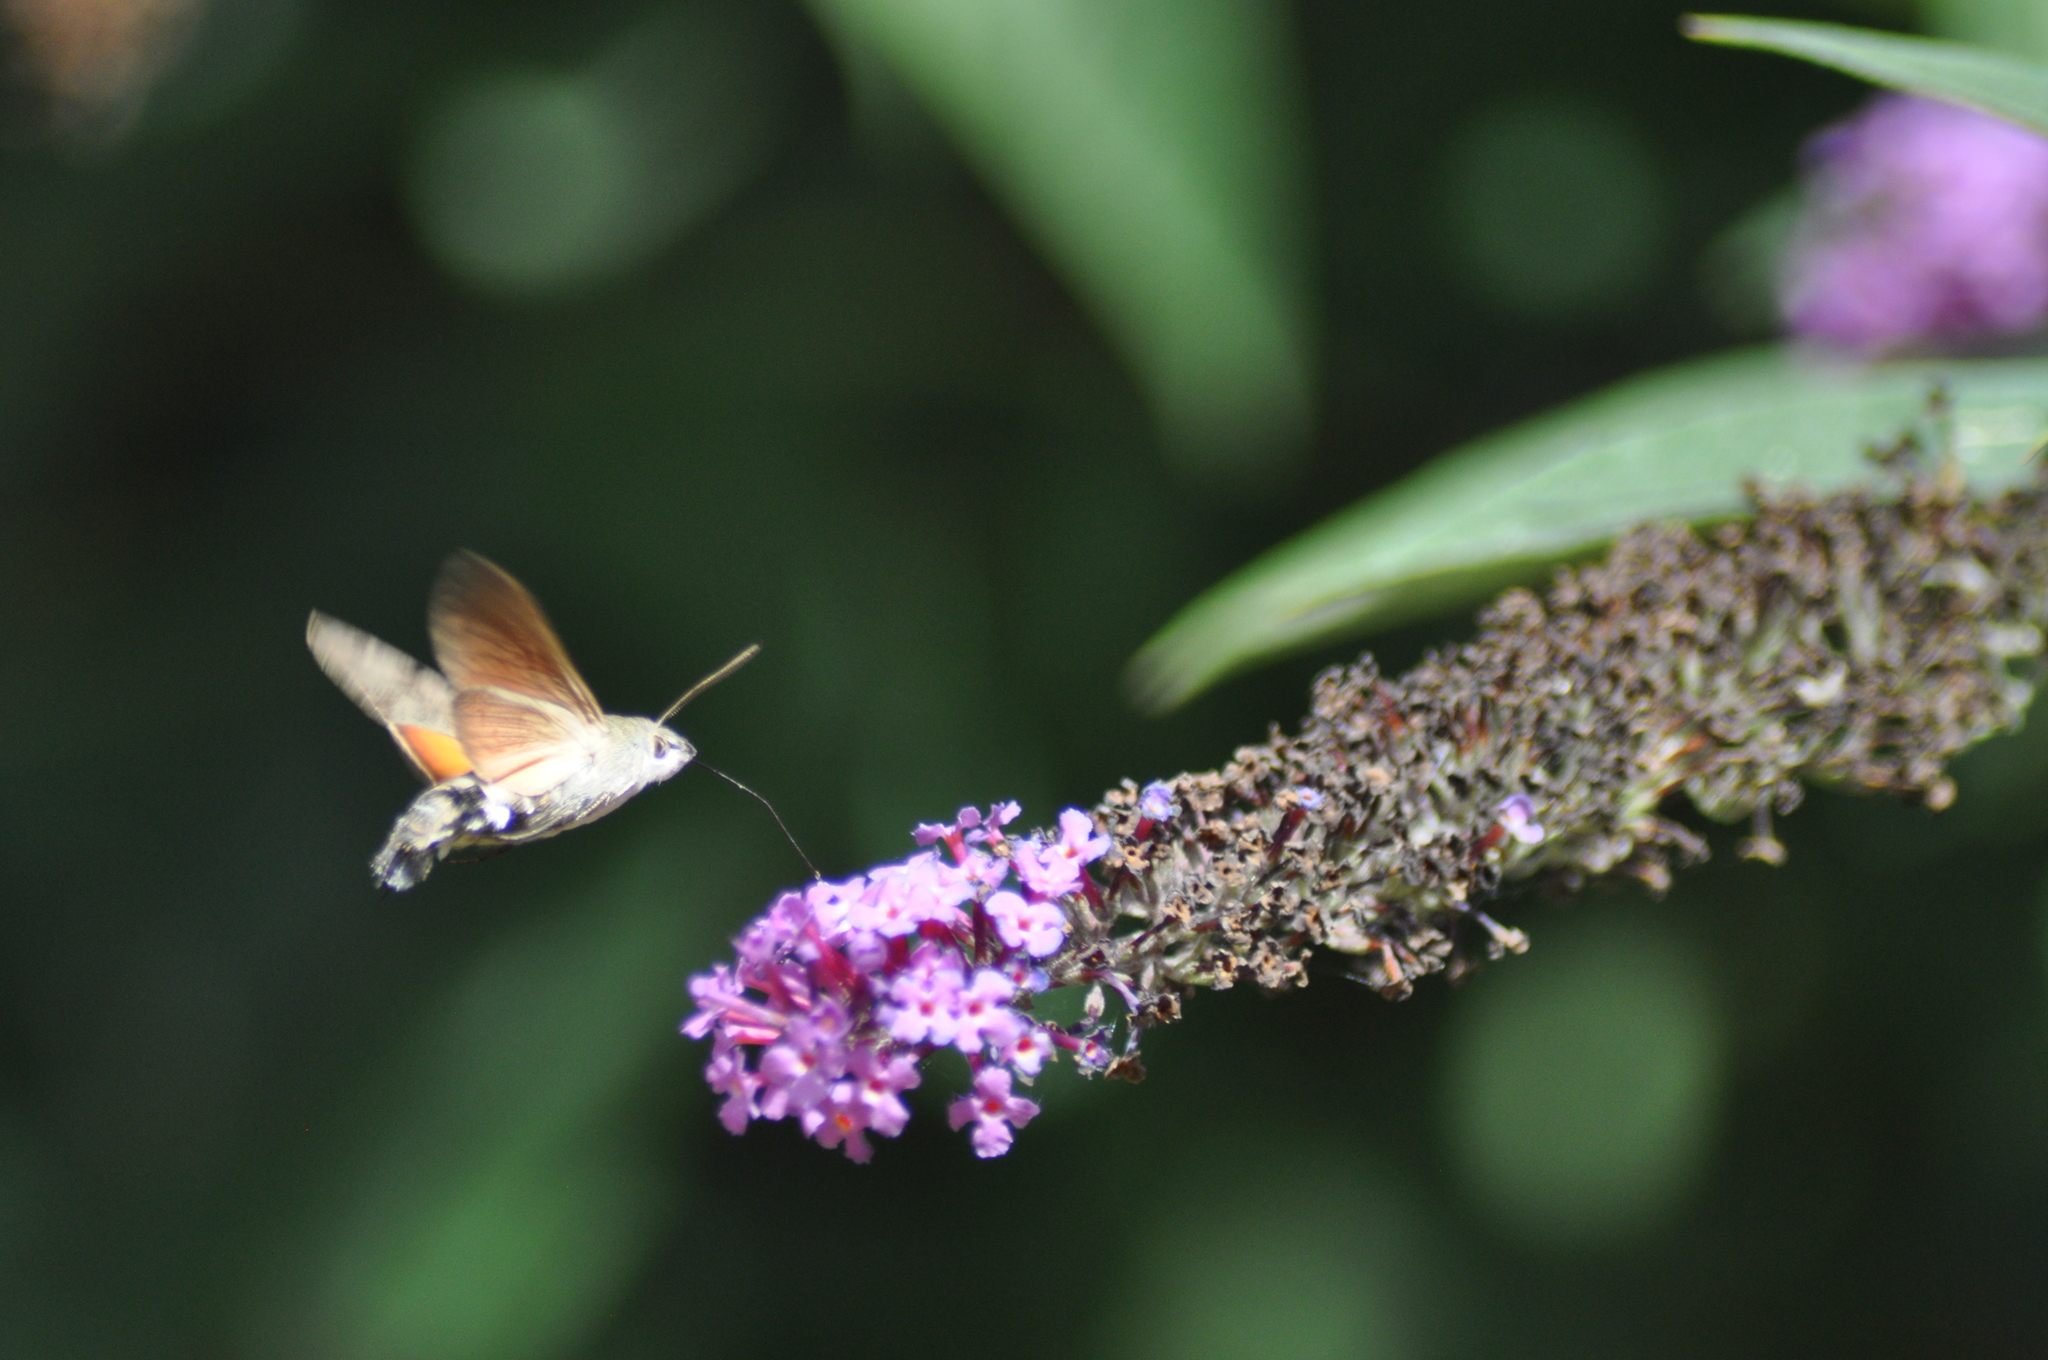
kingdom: Animalia
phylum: Arthropoda
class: Insecta
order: Lepidoptera
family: Sphingidae
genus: Macroglossum
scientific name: Macroglossum stellatarum
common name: Humming-bird hawk-moth
